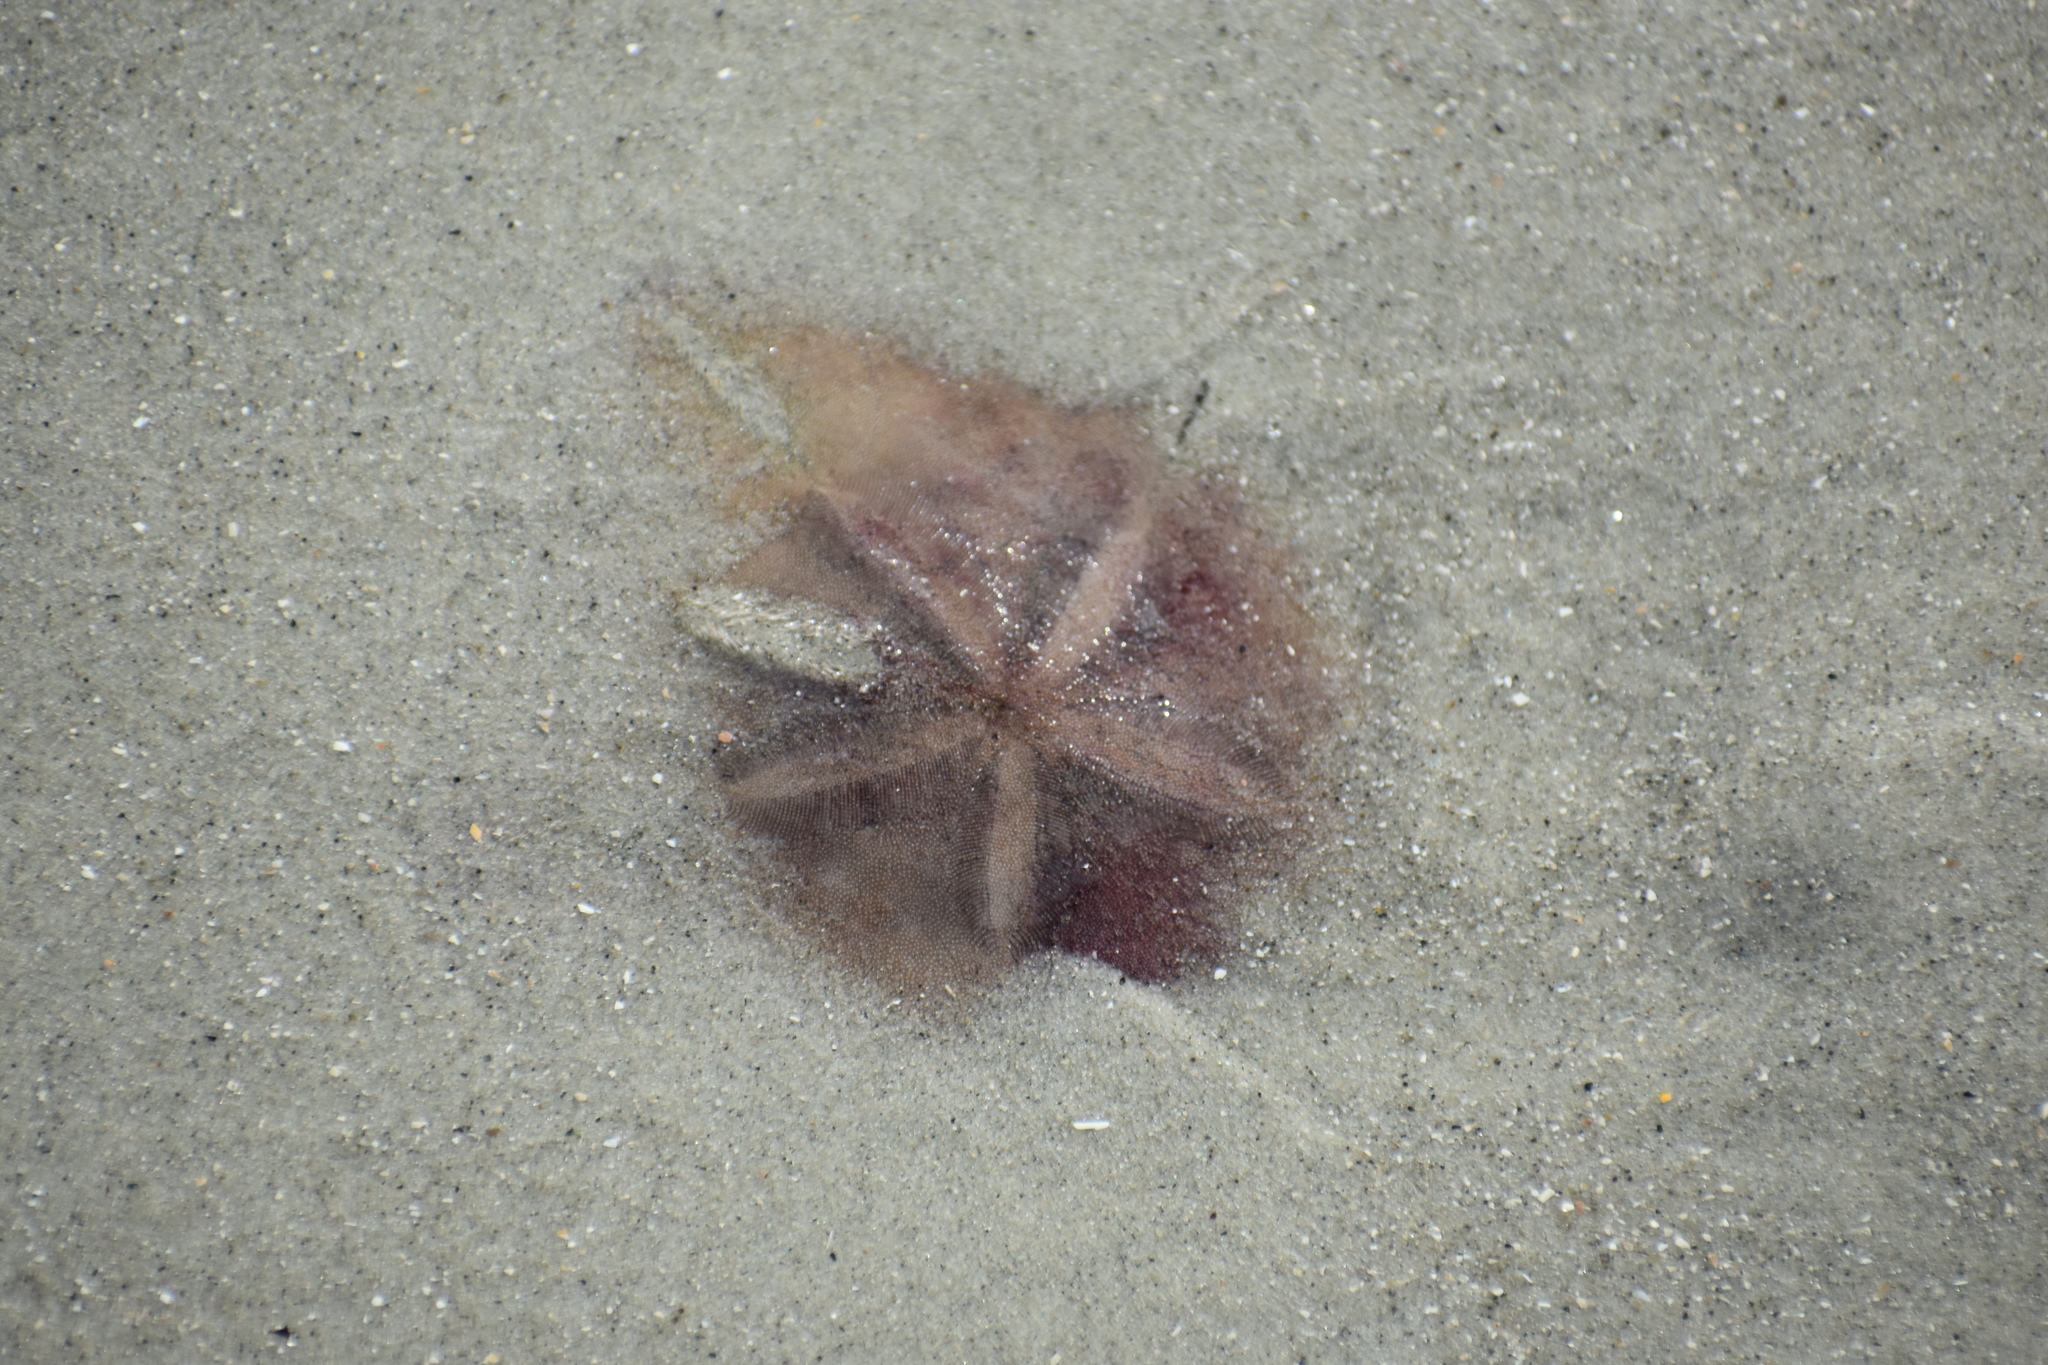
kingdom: Animalia
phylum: Echinodermata
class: Echinoidea
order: Echinolampadacea
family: Mellitidae
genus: Mellita
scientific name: Mellita isometra
